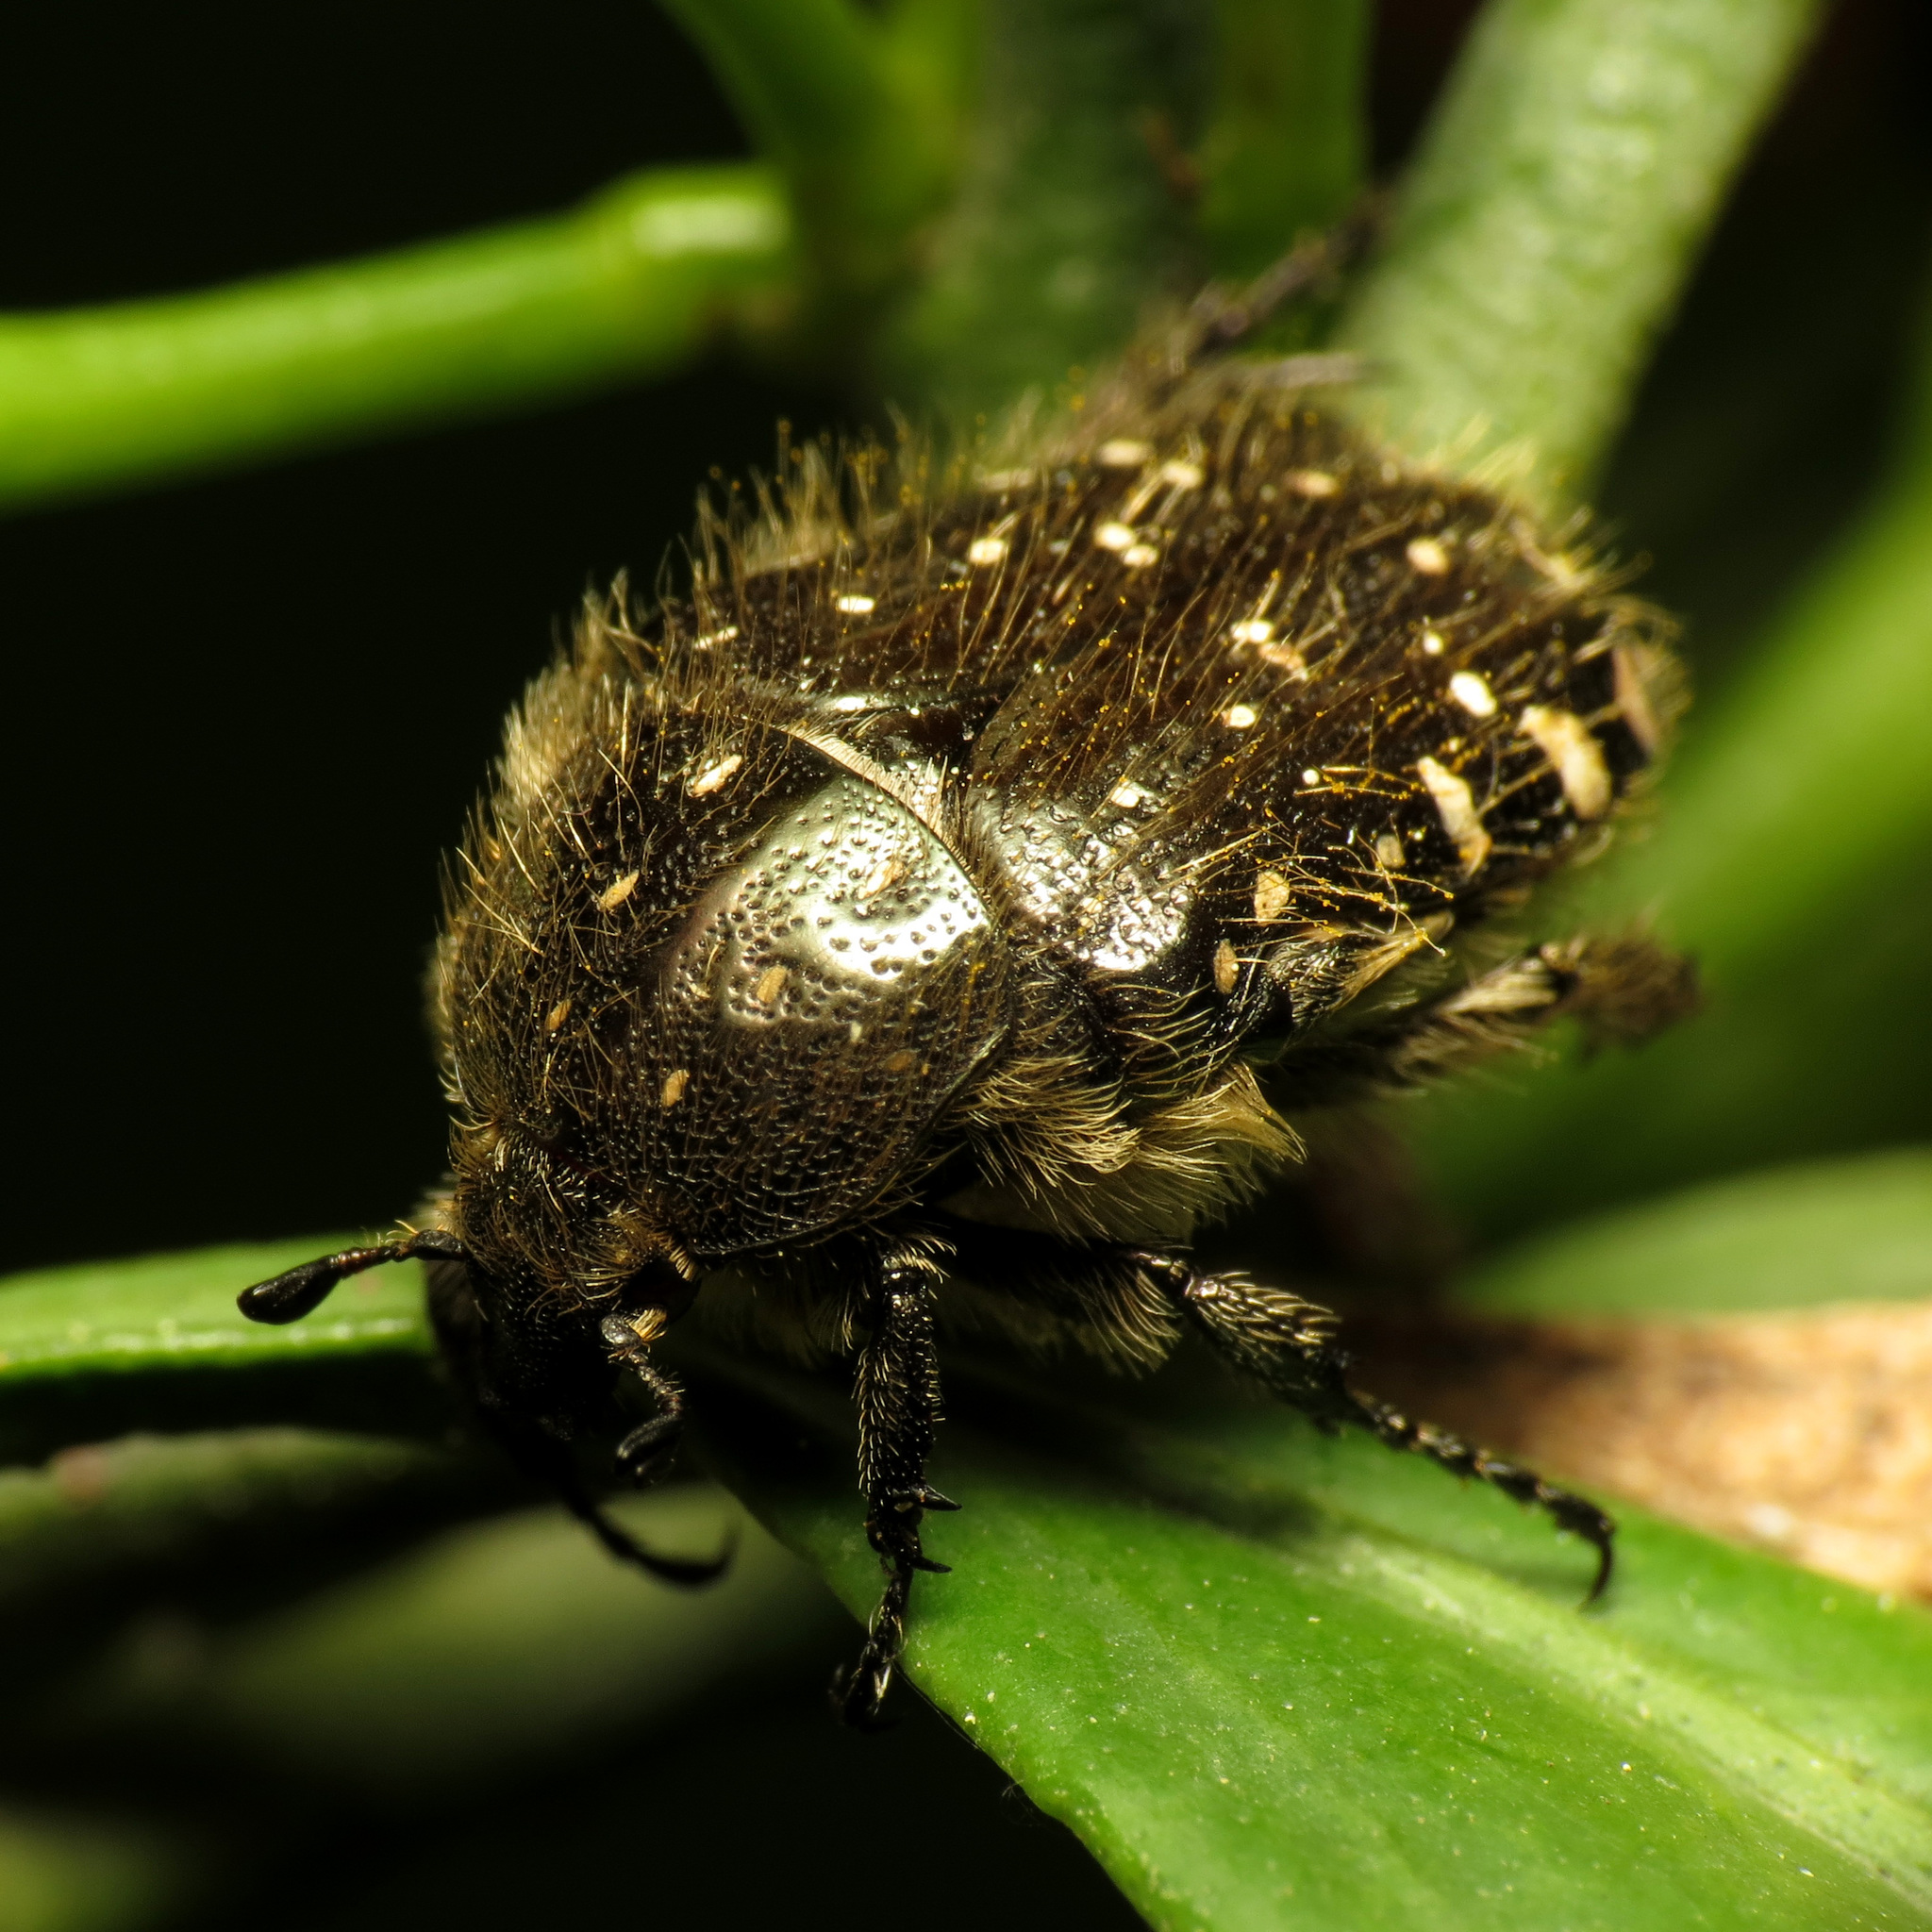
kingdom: Animalia
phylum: Arthropoda
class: Insecta
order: Coleoptera
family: Scarabaeidae
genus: Oxythyrea
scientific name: Oxythyrea funesta
